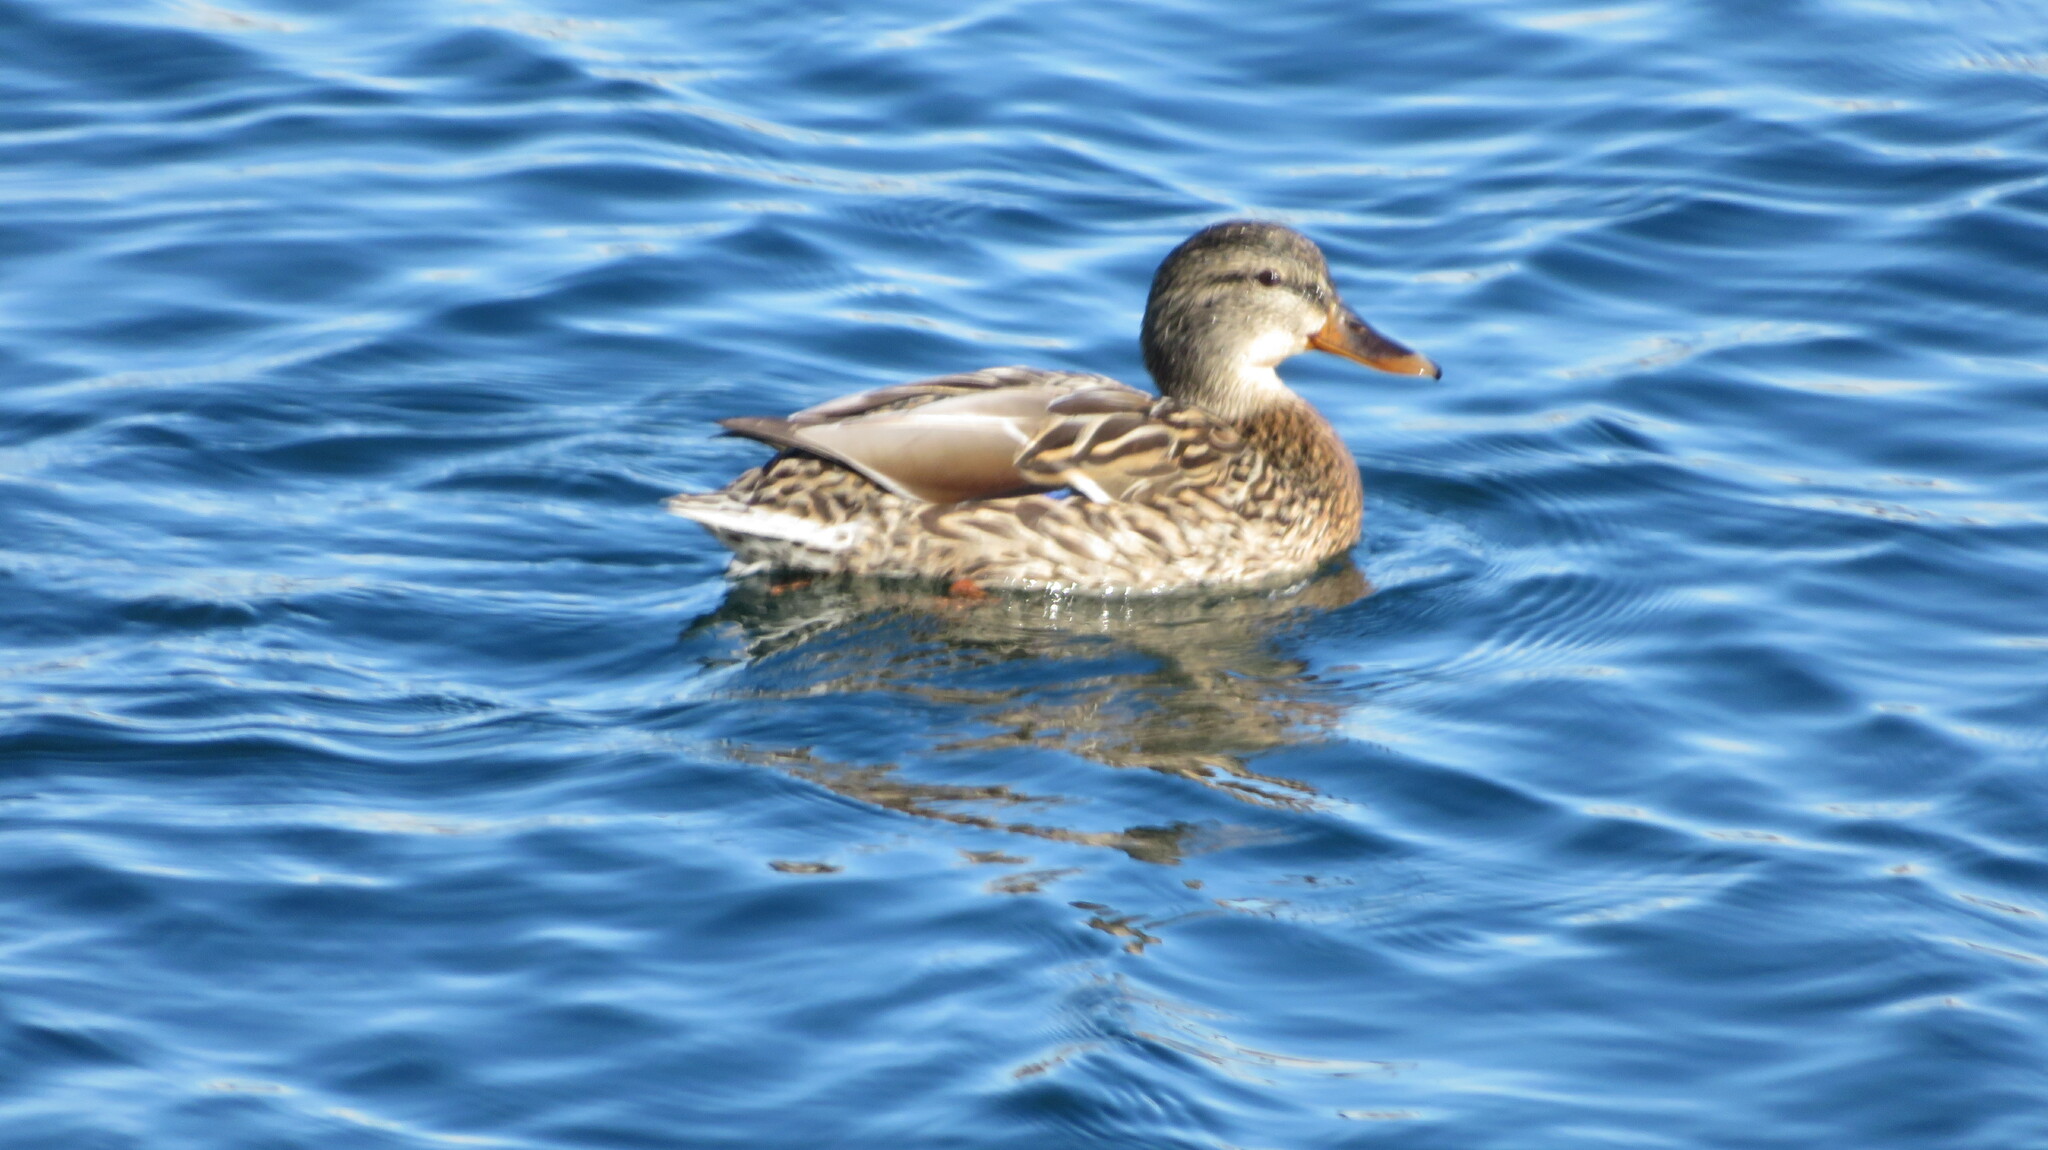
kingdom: Animalia
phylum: Chordata
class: Aves
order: Anseriformes
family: Anatidae
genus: Anas
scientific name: Anas platyrhynchos
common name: Mallard
